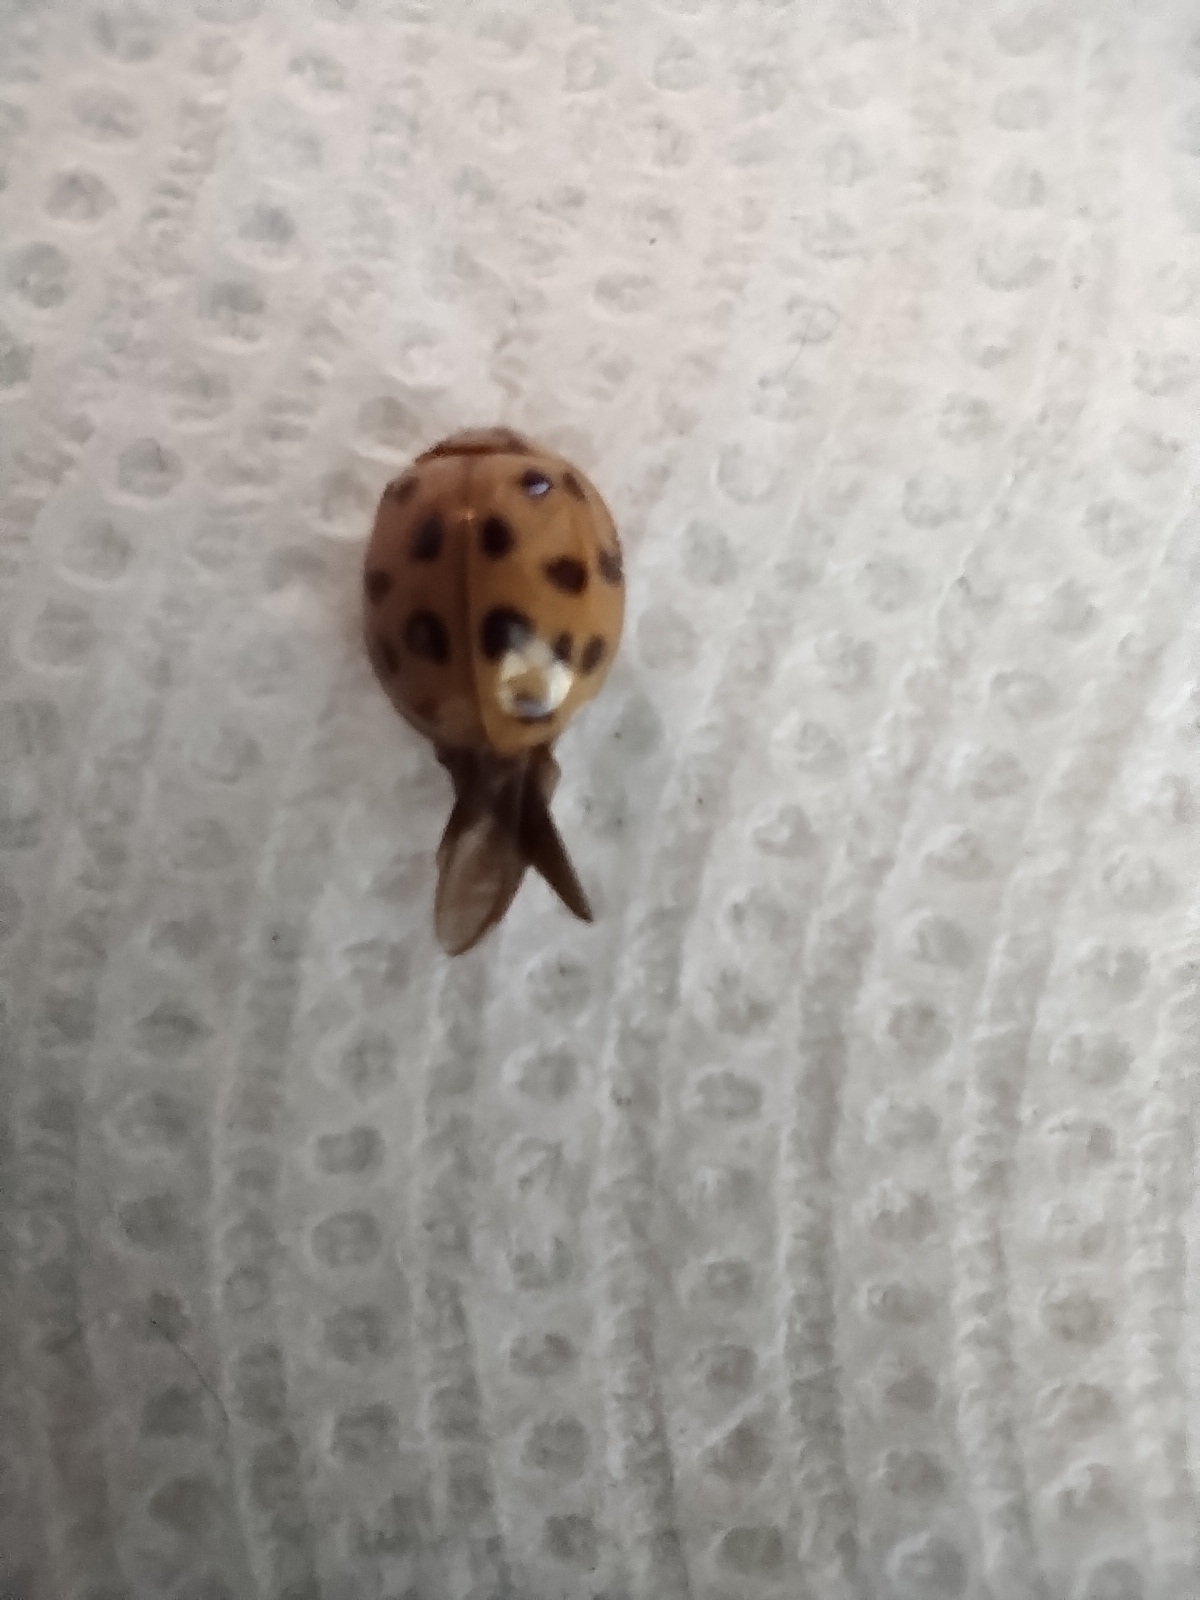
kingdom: Animalia
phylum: Arthropoda
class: Insecta
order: Coleoptera
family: Coccinellidae
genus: Harmonia
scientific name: Harmonia axyridis
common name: Harlequin ladybird
